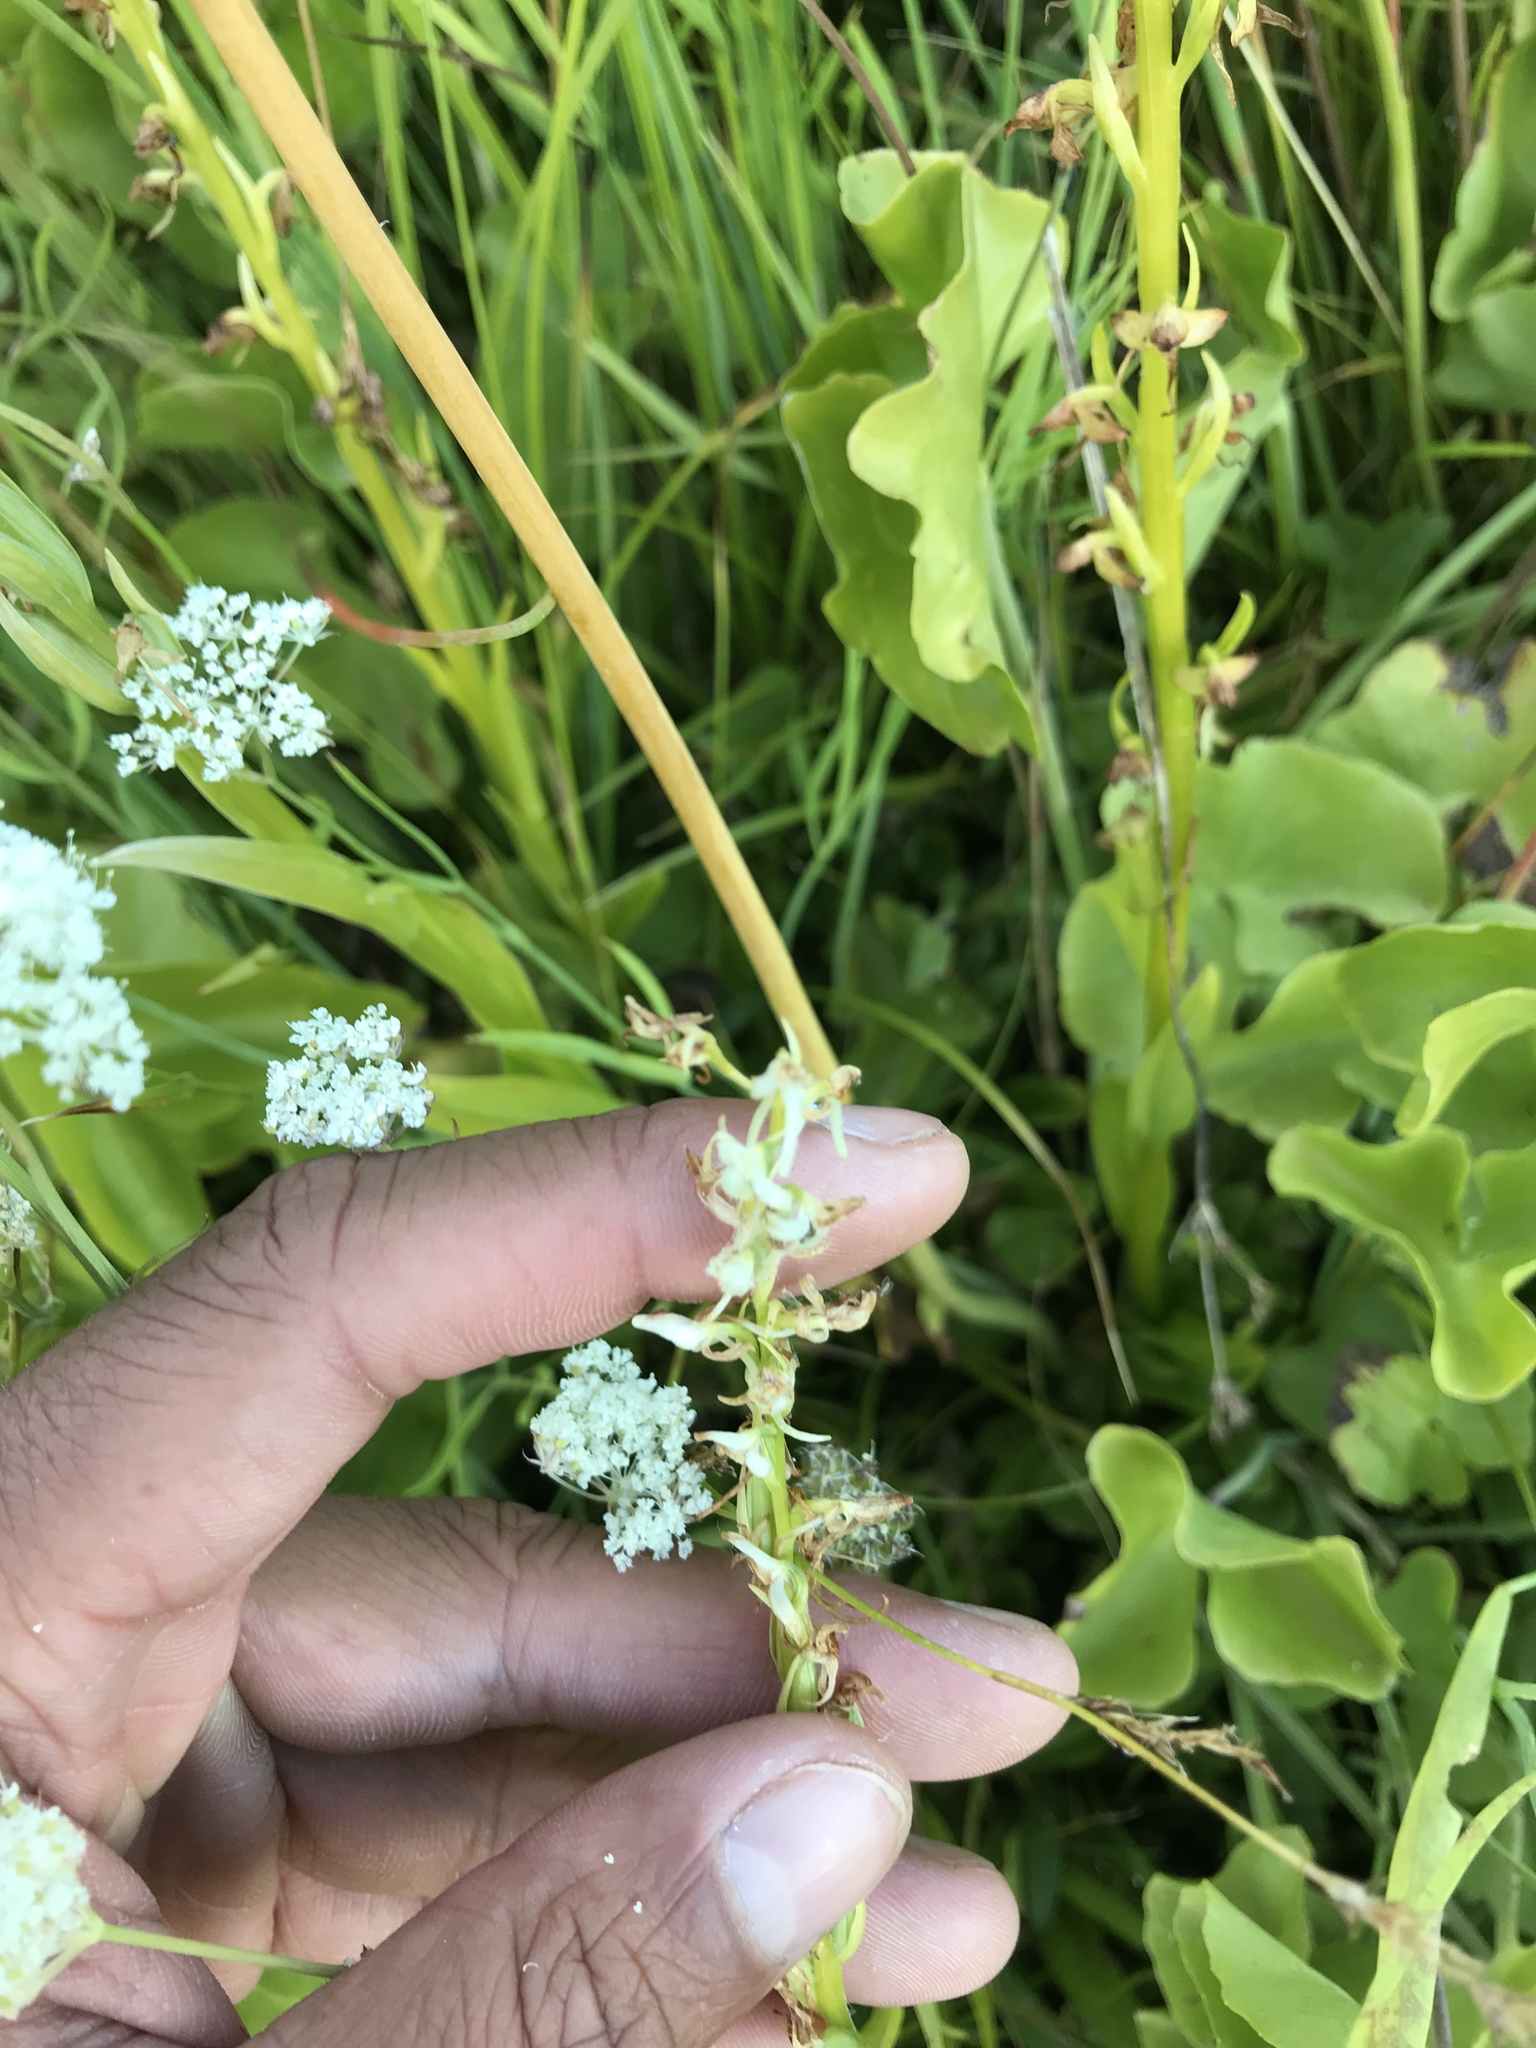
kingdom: Plantae
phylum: Tracheophyta
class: Liliopsida
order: Asparagales
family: Orchidaceae
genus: Platanthera
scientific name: Platanthera sparsiflora
